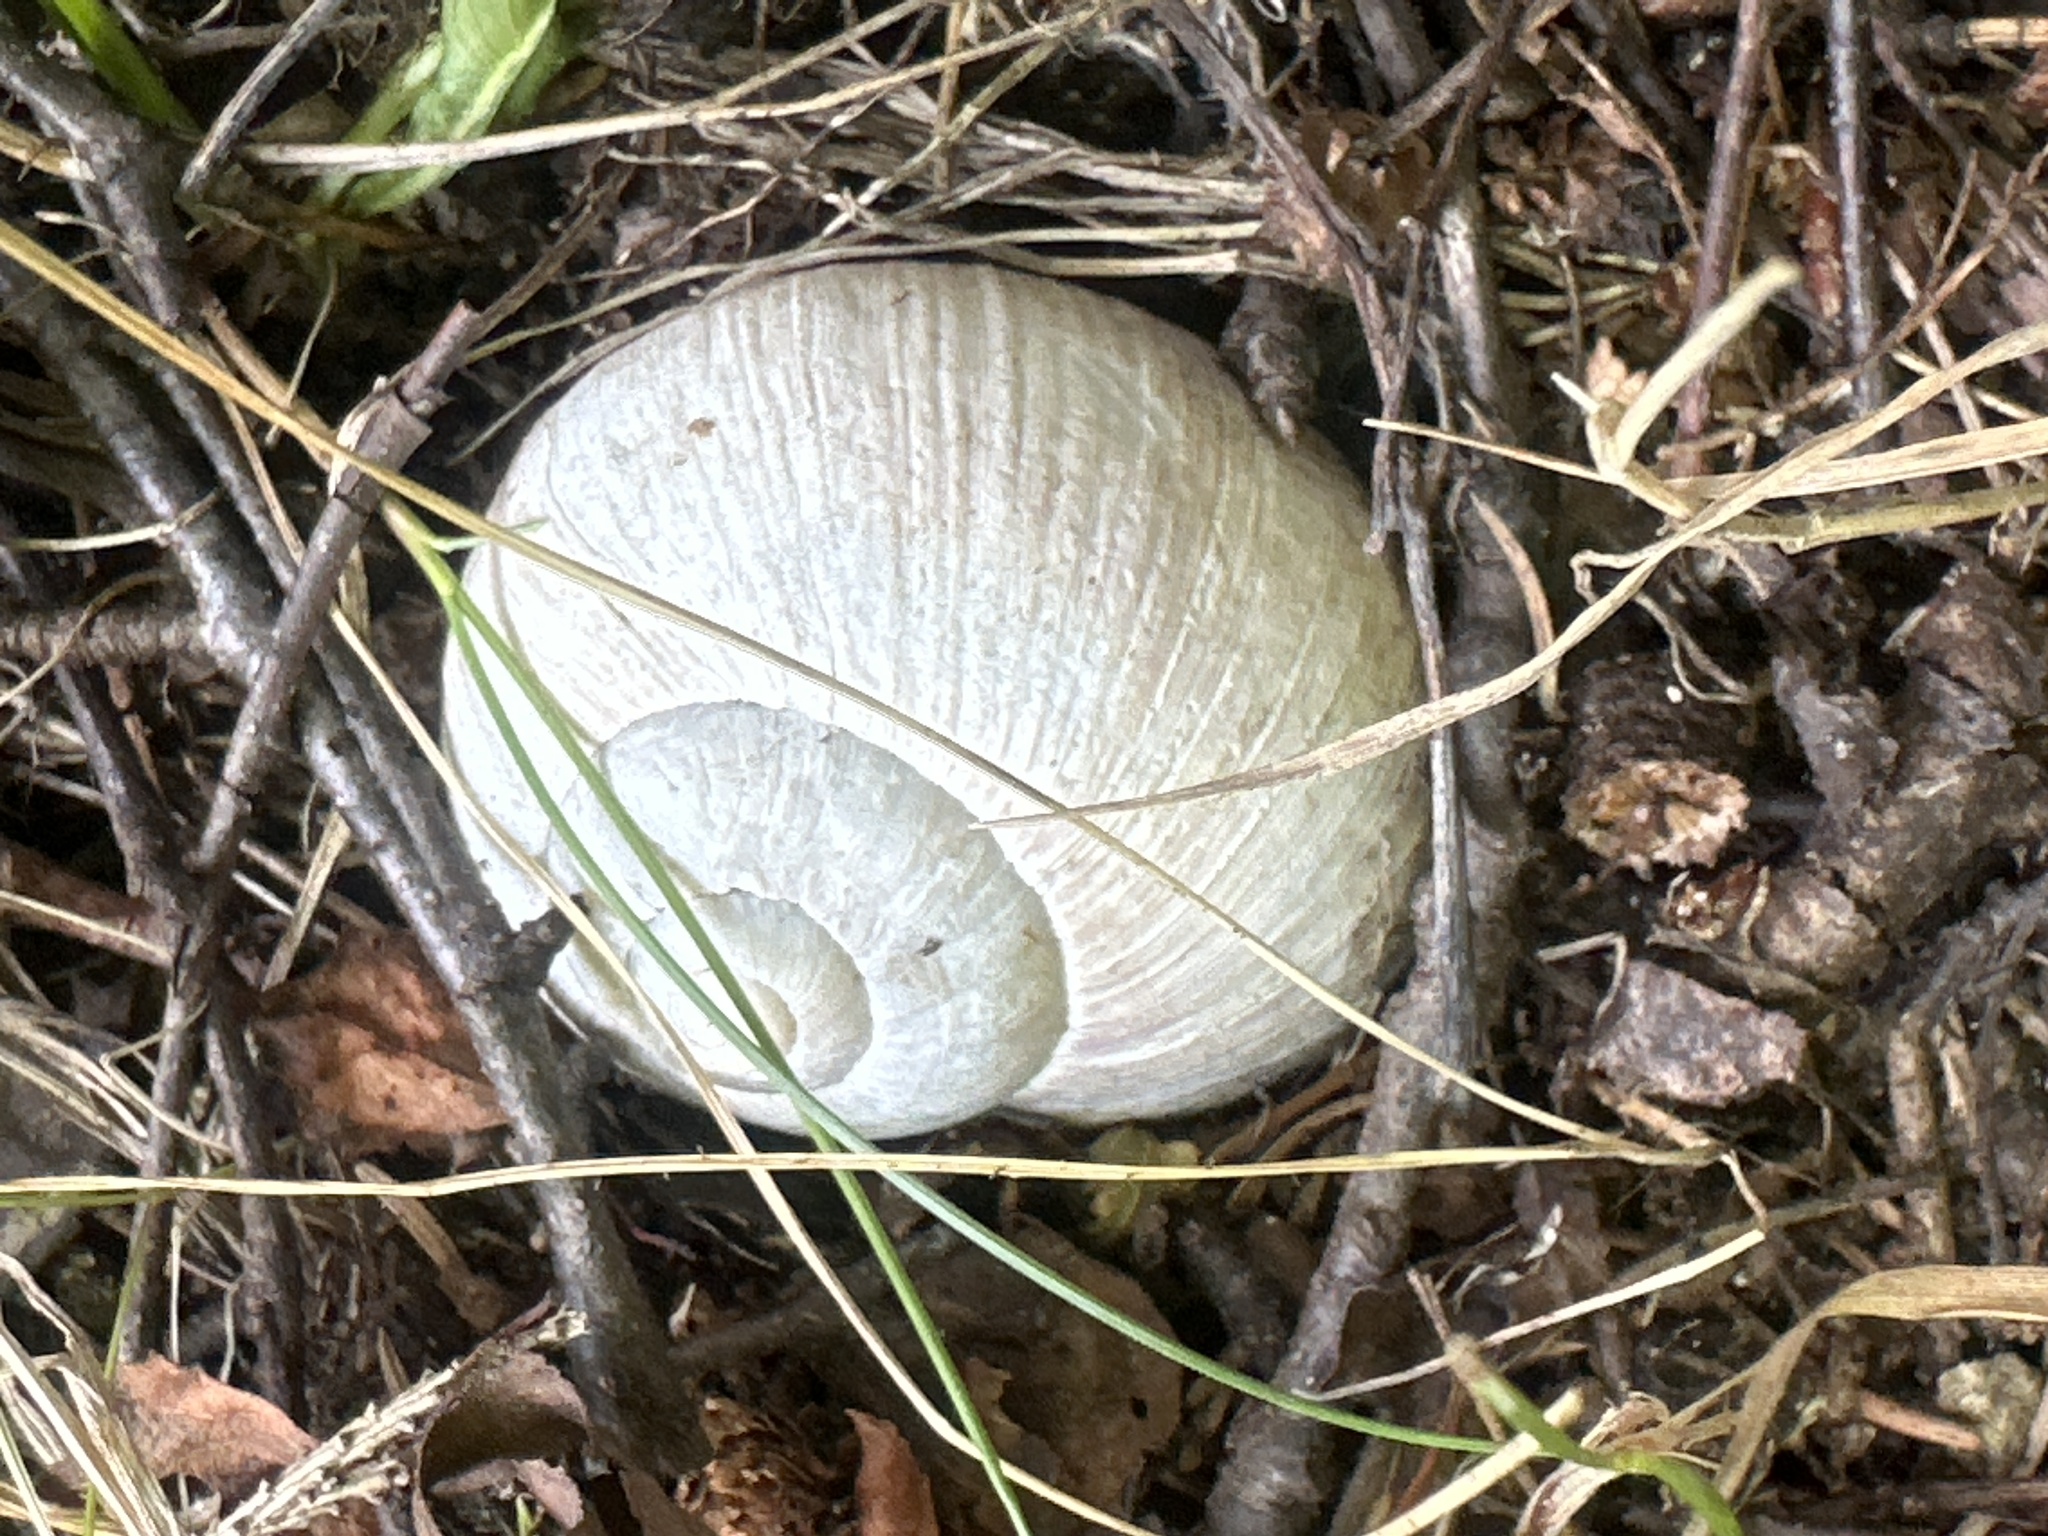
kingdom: Animalia
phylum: Mollusca
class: Gastropoda
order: Stylommatophora
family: Helicidae
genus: Helix
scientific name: Helix pomatia
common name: Roman snail
